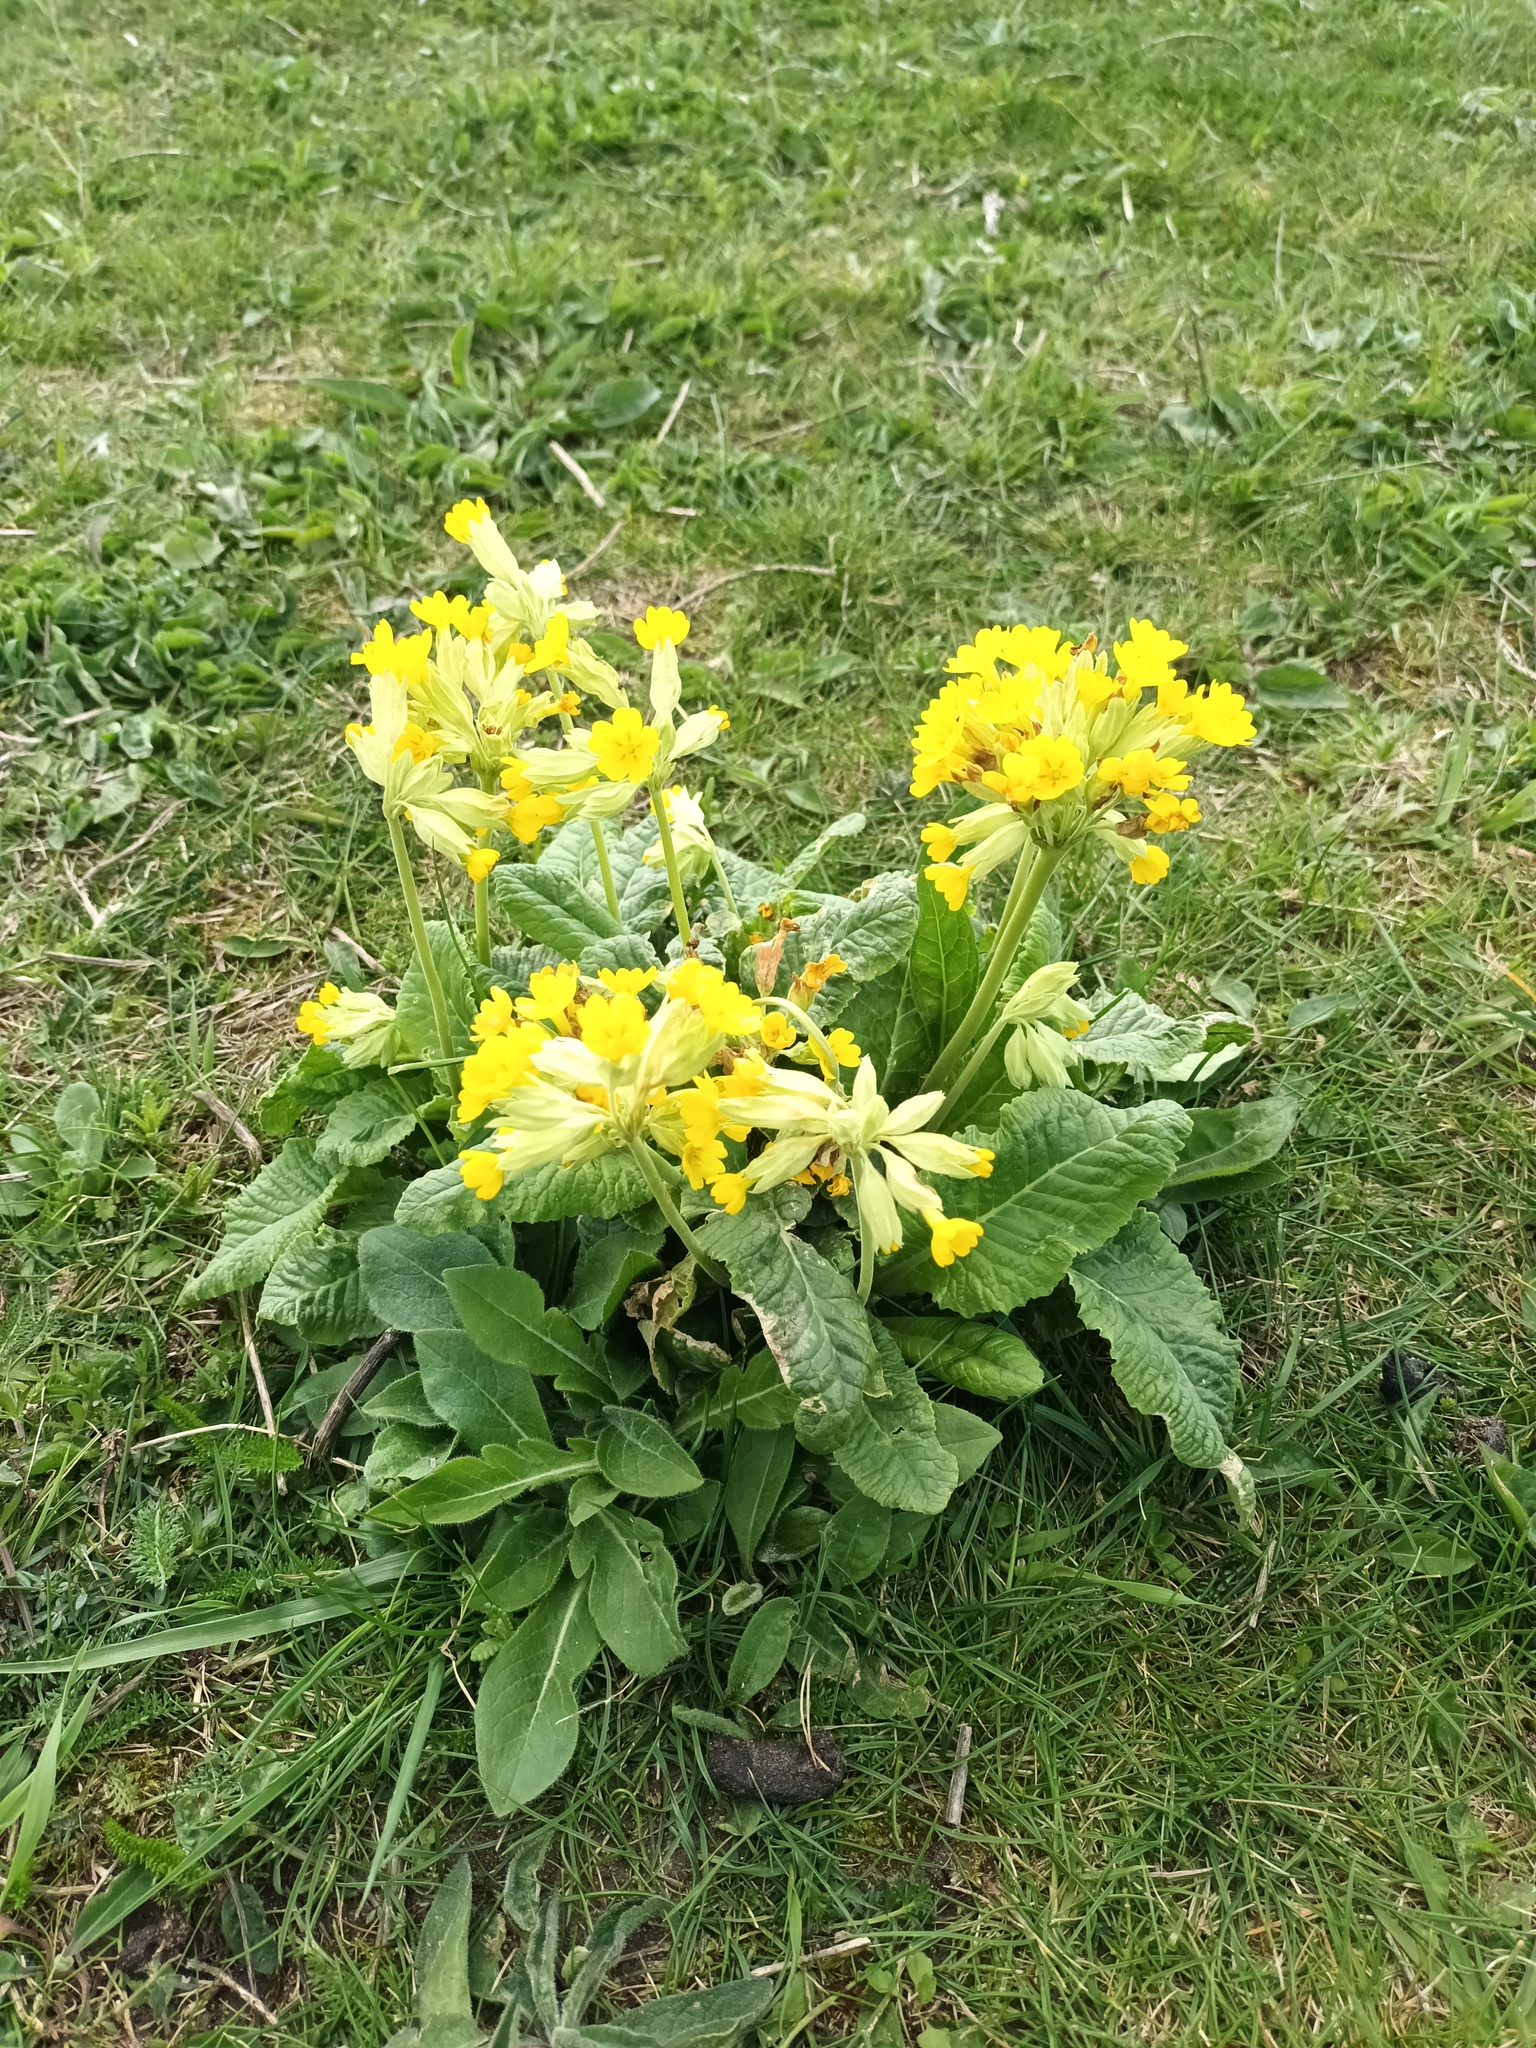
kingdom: Plantae
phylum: Tracheophyta
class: Magnoliopsida
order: Ericales
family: Primulaceae
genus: Primula
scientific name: Primula veris
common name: Cowslip
